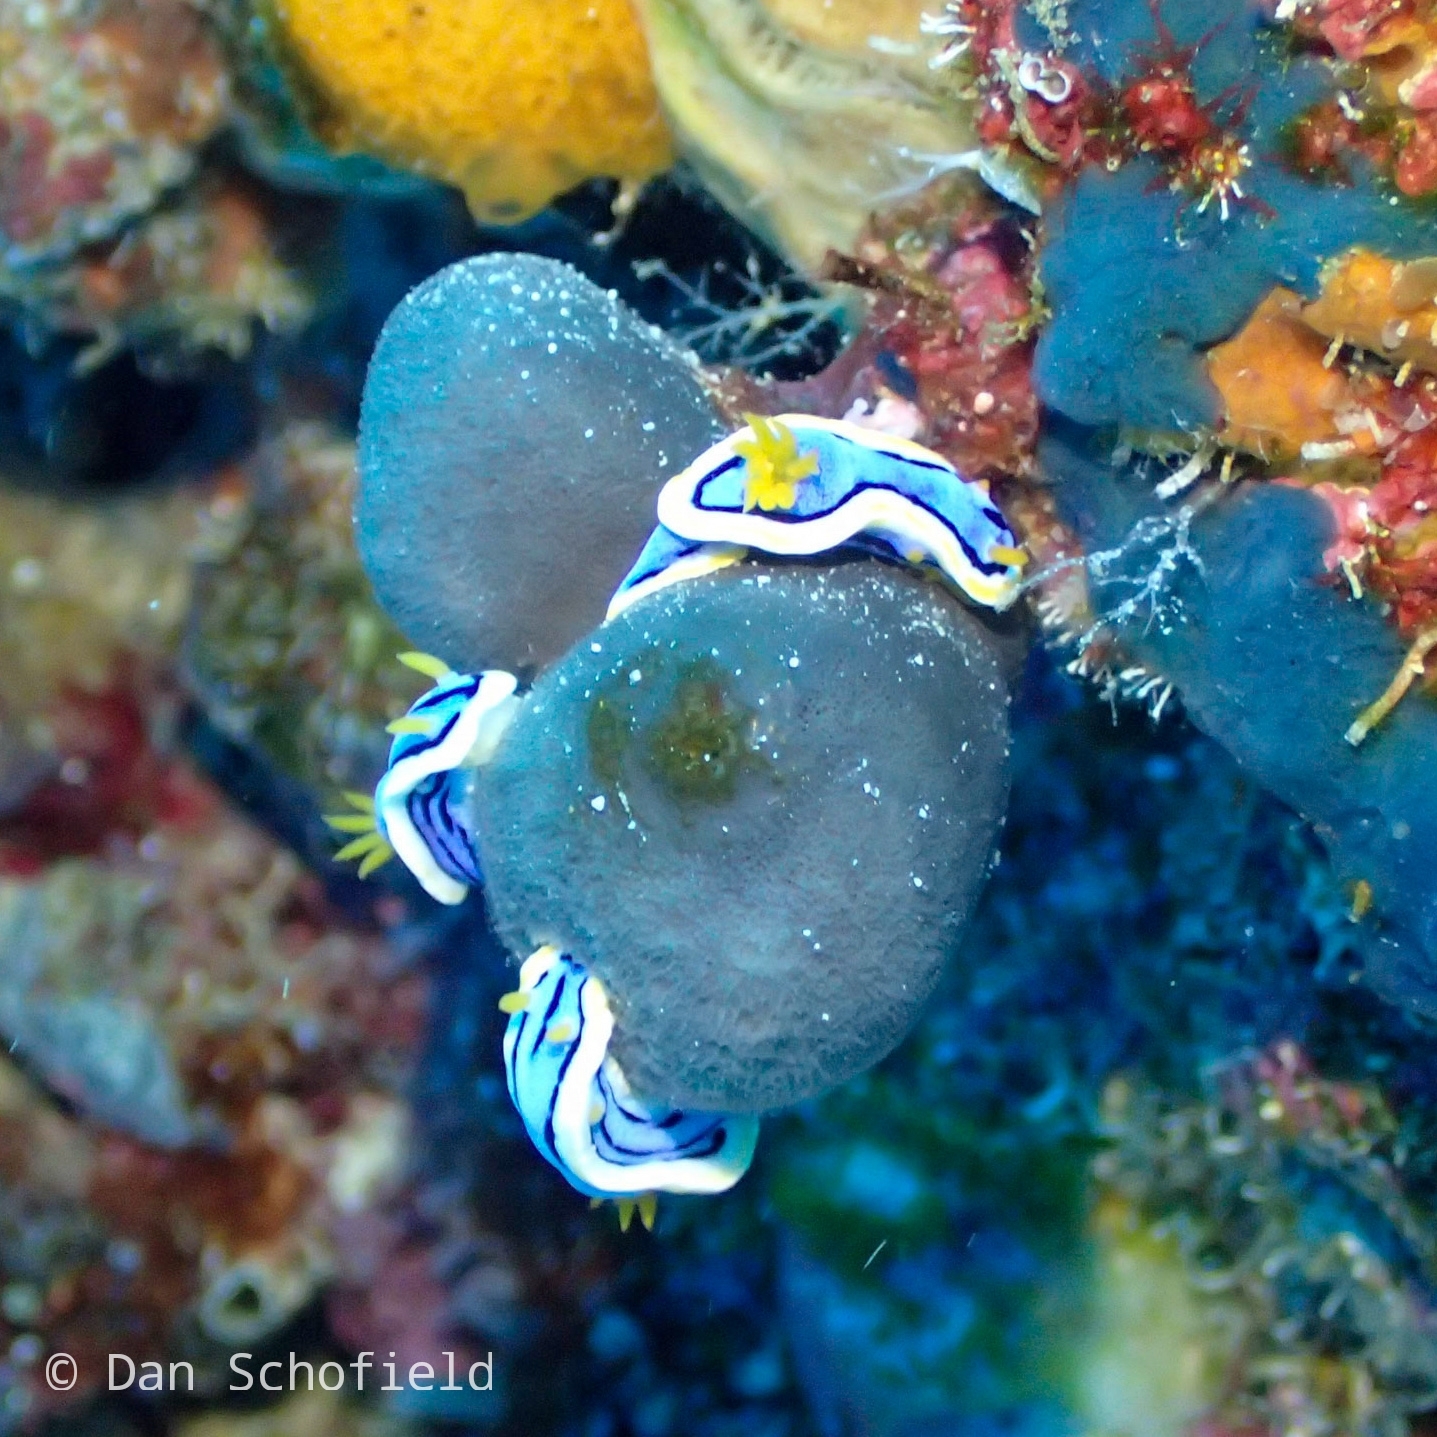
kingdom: Animalia
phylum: Mollusca
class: Gastropoda
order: Nudibranchia
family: Chromodorididae
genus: Chromodoris
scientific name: Chromodoris annae
